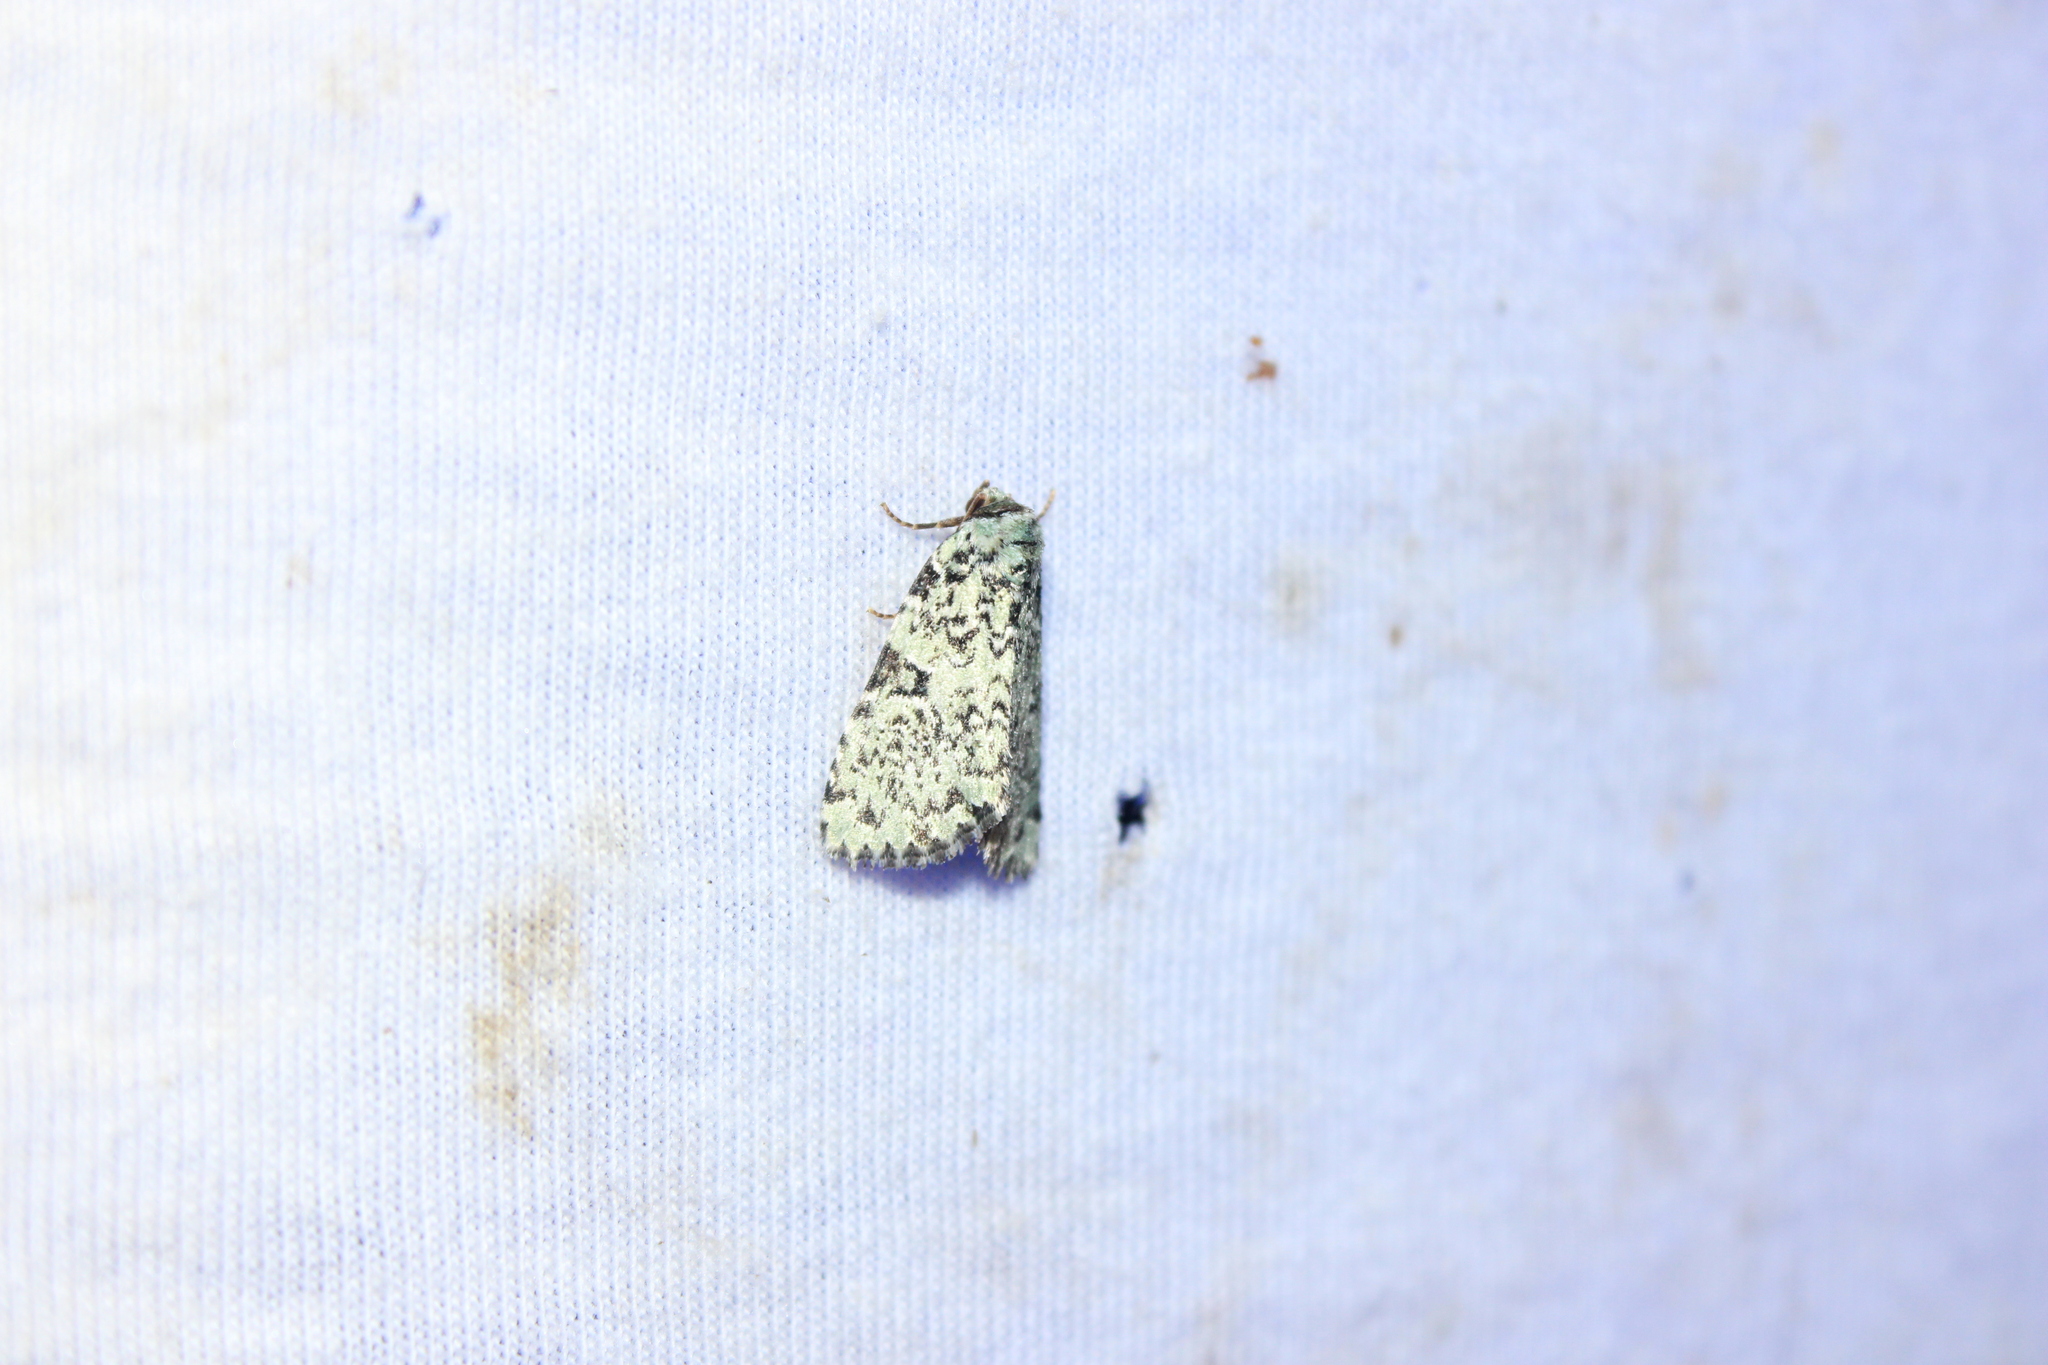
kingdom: Animalia
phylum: Arthropoda
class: Insecta
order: Lepidoptera
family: Noctuidae
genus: Leuconycta
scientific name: Leuconycta diphteroides
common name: Green leuconycta moth
